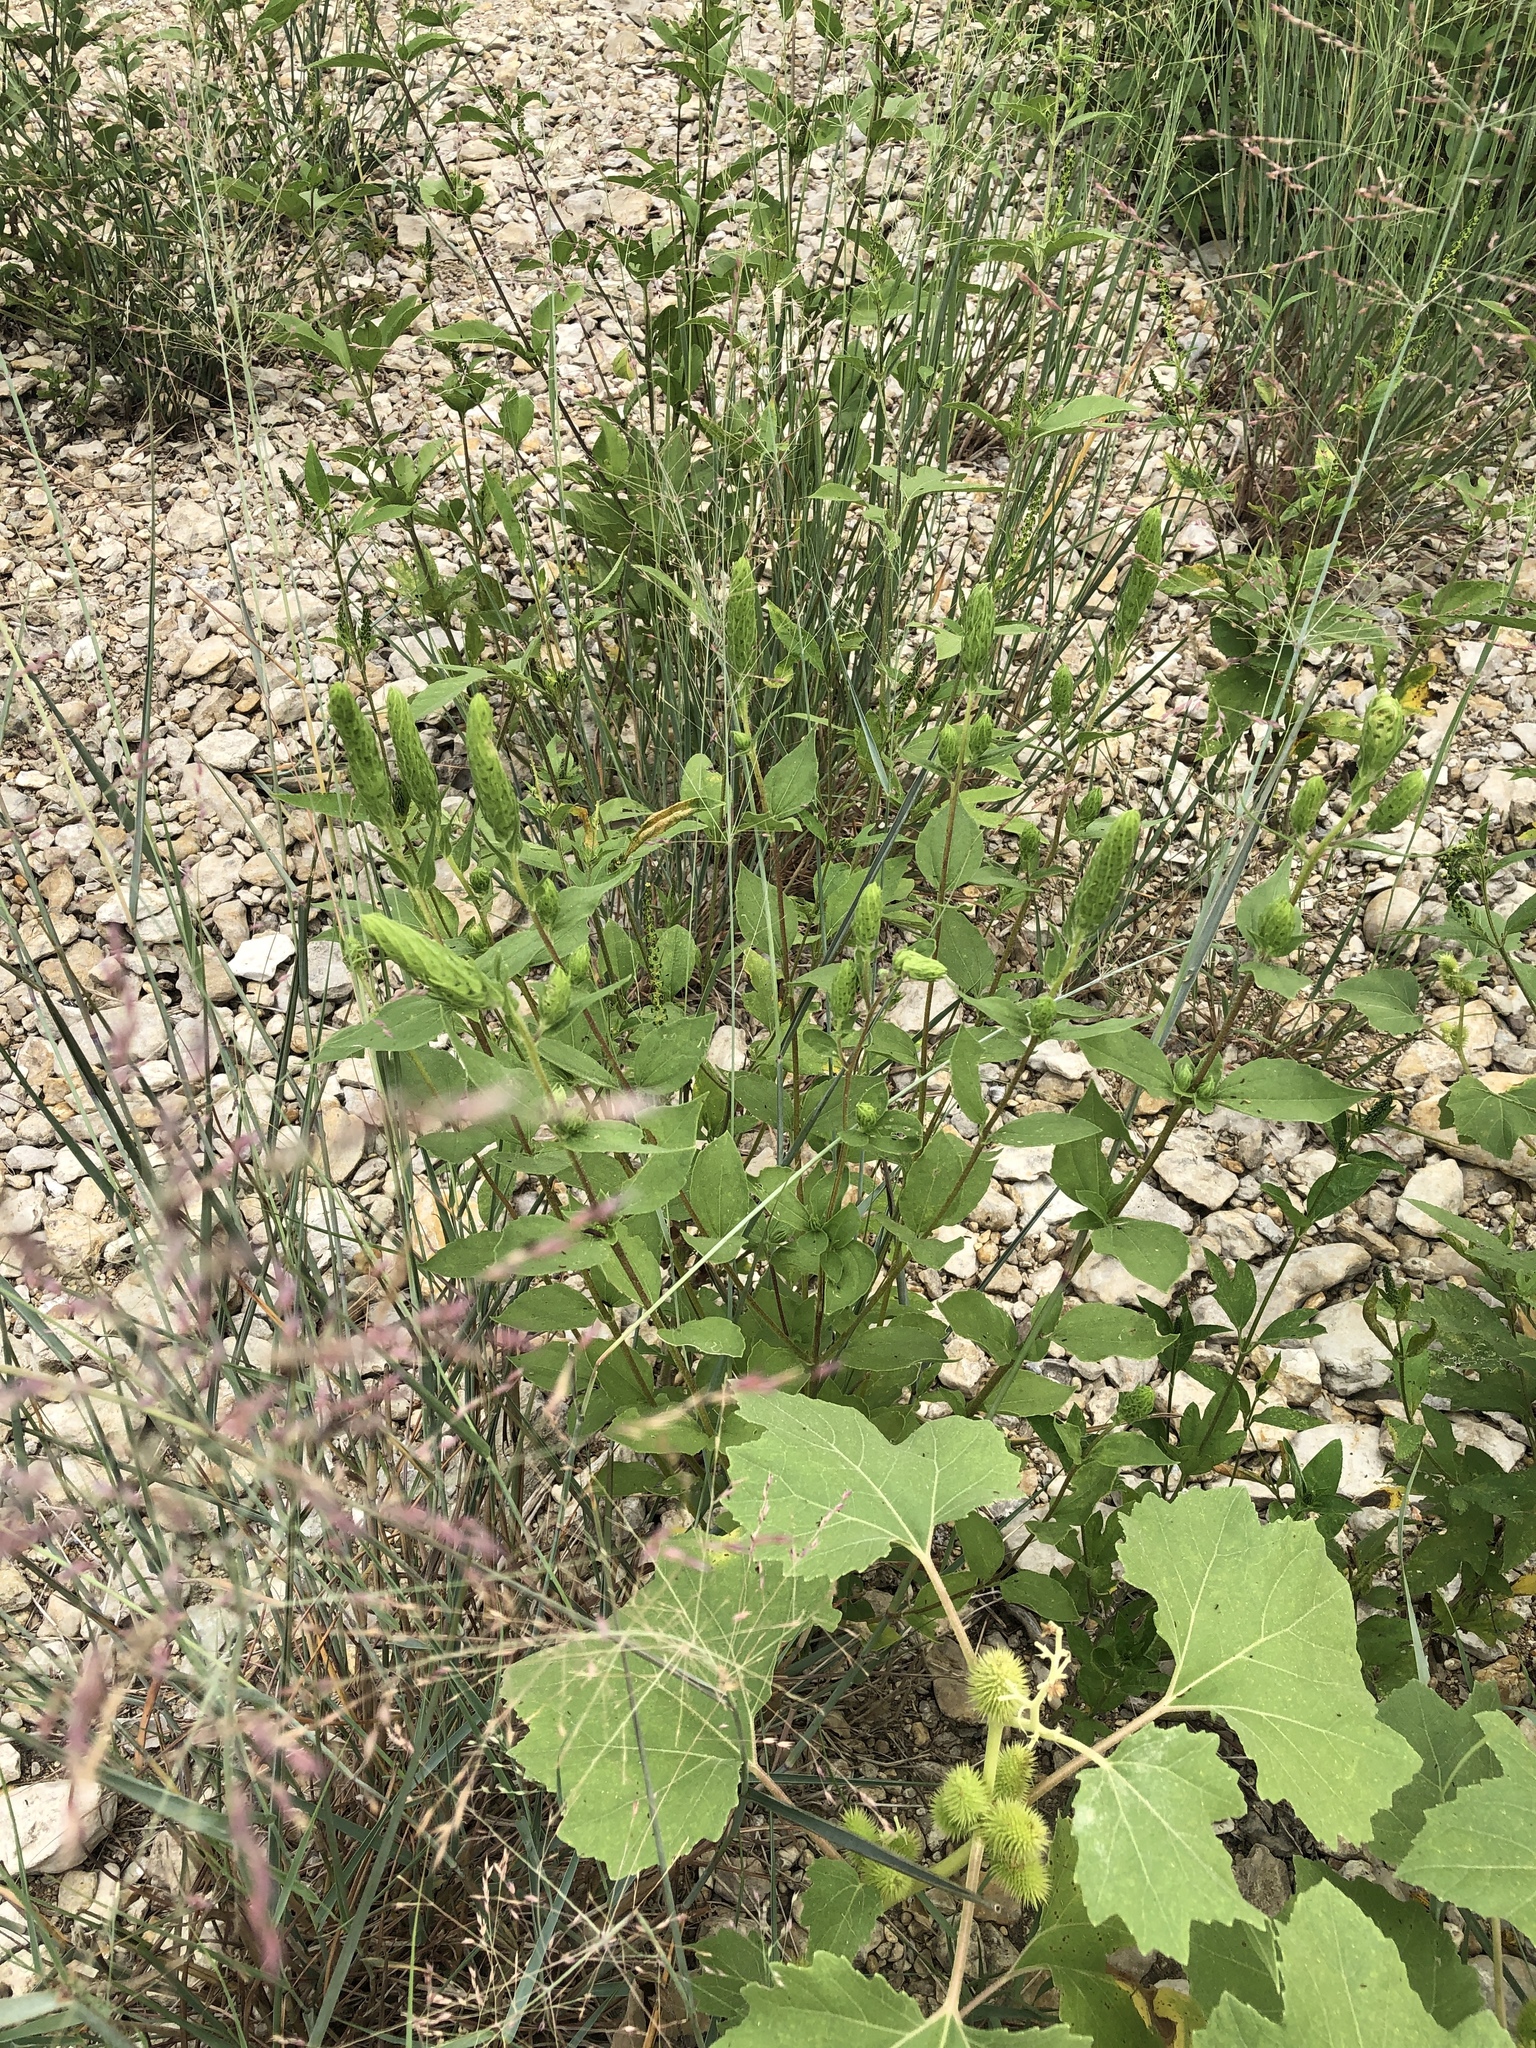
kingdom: Plantae
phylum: Tracheophyta
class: Magnoliopsida
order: Asterales
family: Asteraceae
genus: Iva
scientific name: Iva annua
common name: Marsh-elder
